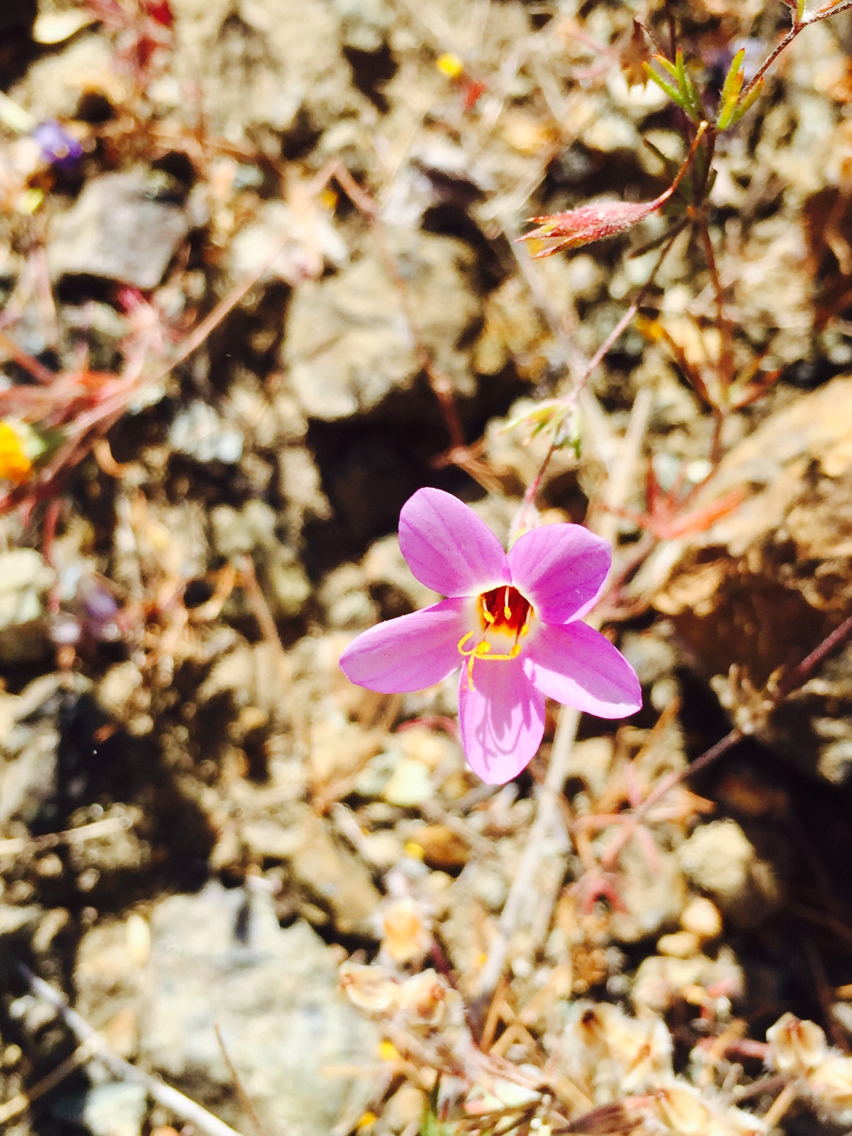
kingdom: Plantae
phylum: Tracheophyta
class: Magnoliopsida
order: Ericales
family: Polemoniaceae
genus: Leptosiphon
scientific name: Leptosiphon ambiguus
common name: Serpentine linanthus
